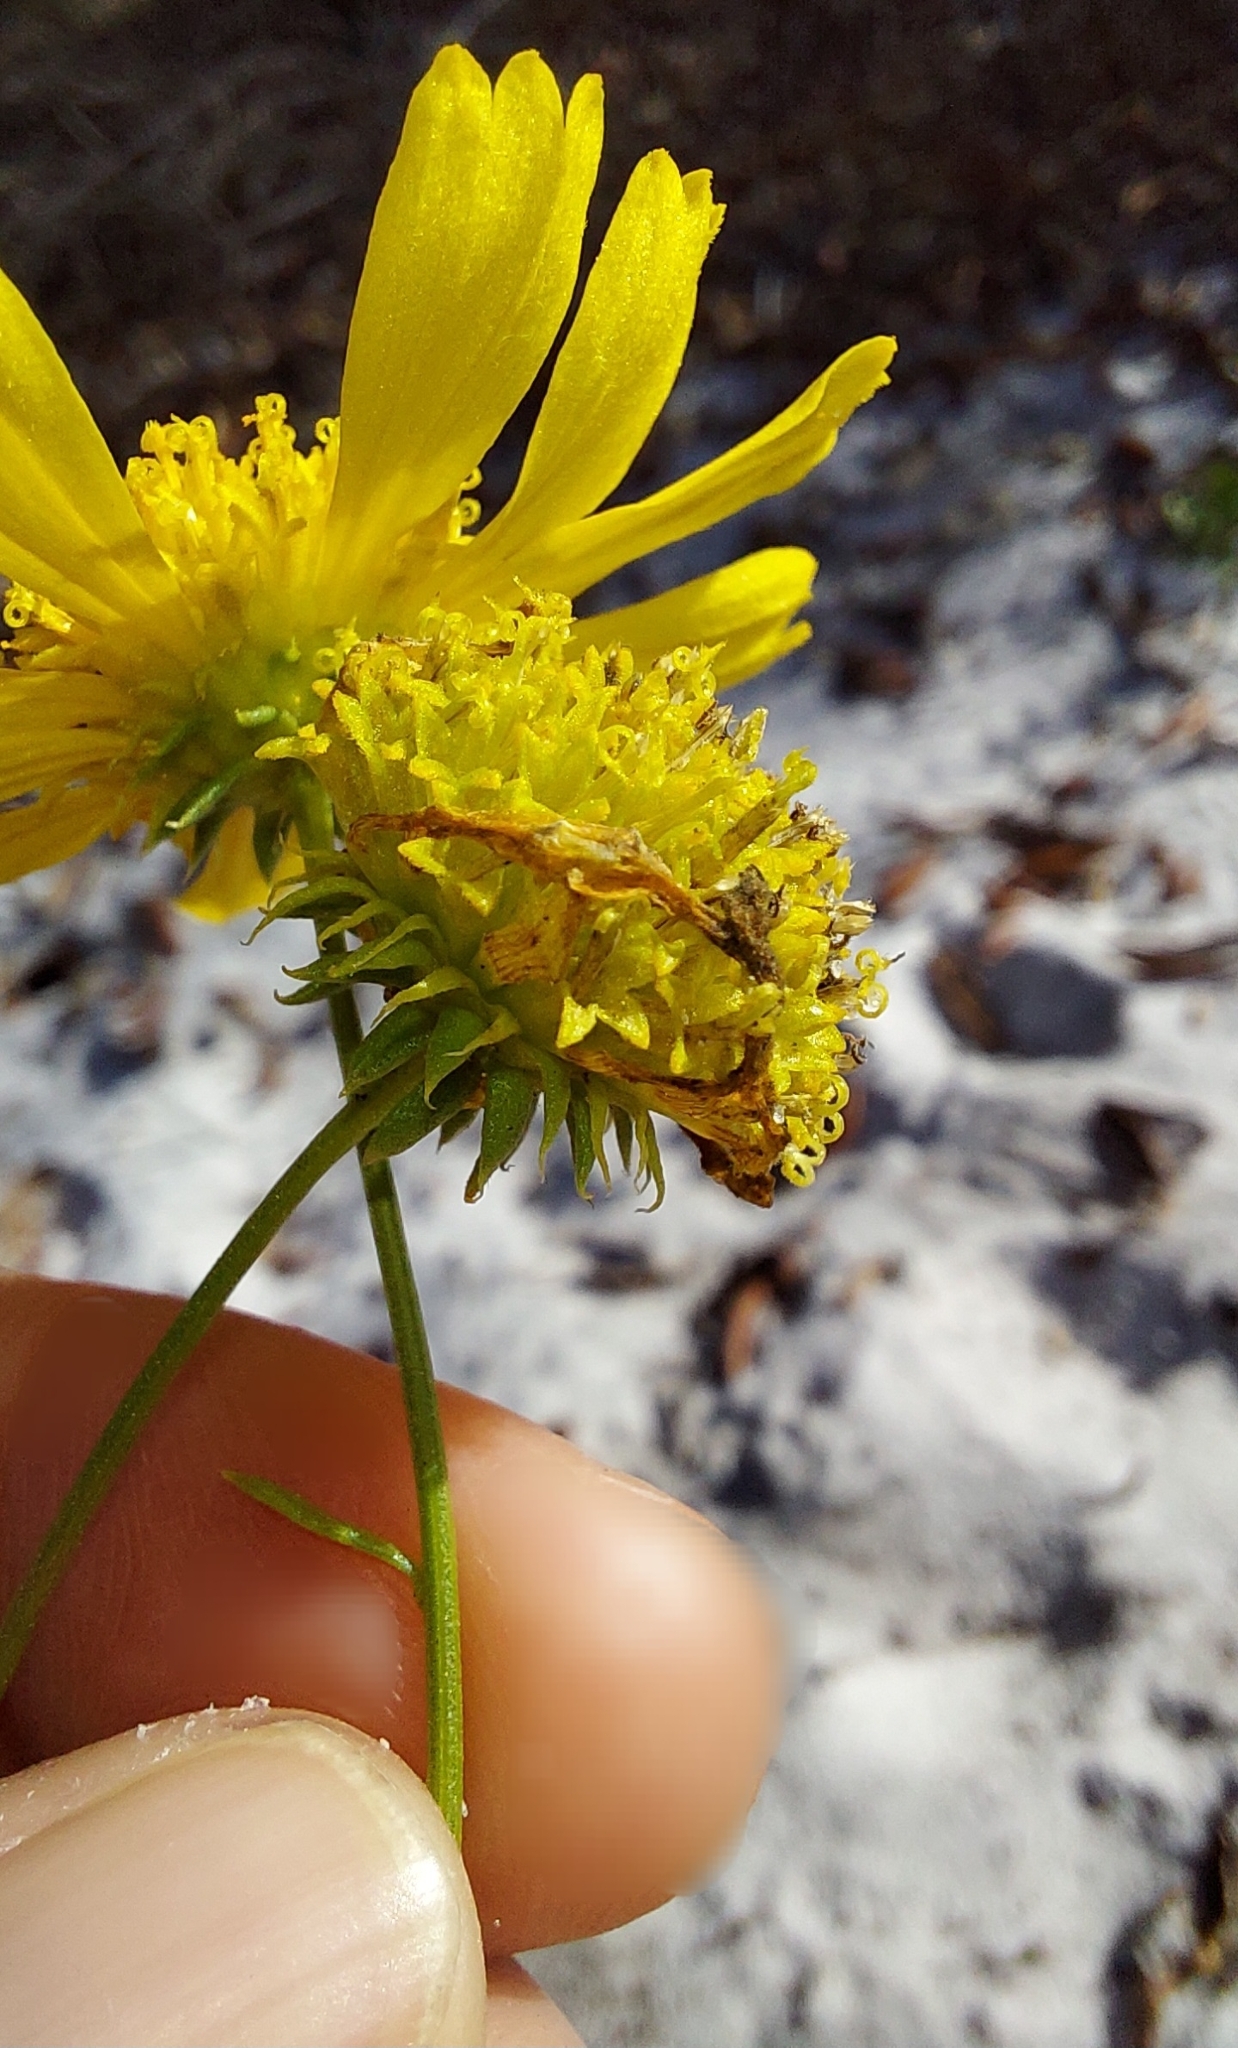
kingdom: Plantae
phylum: Tracheophyta
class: Magnoliopsida
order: Asterales
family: Asteraceae
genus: Balduina
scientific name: Balduina angustifolia
